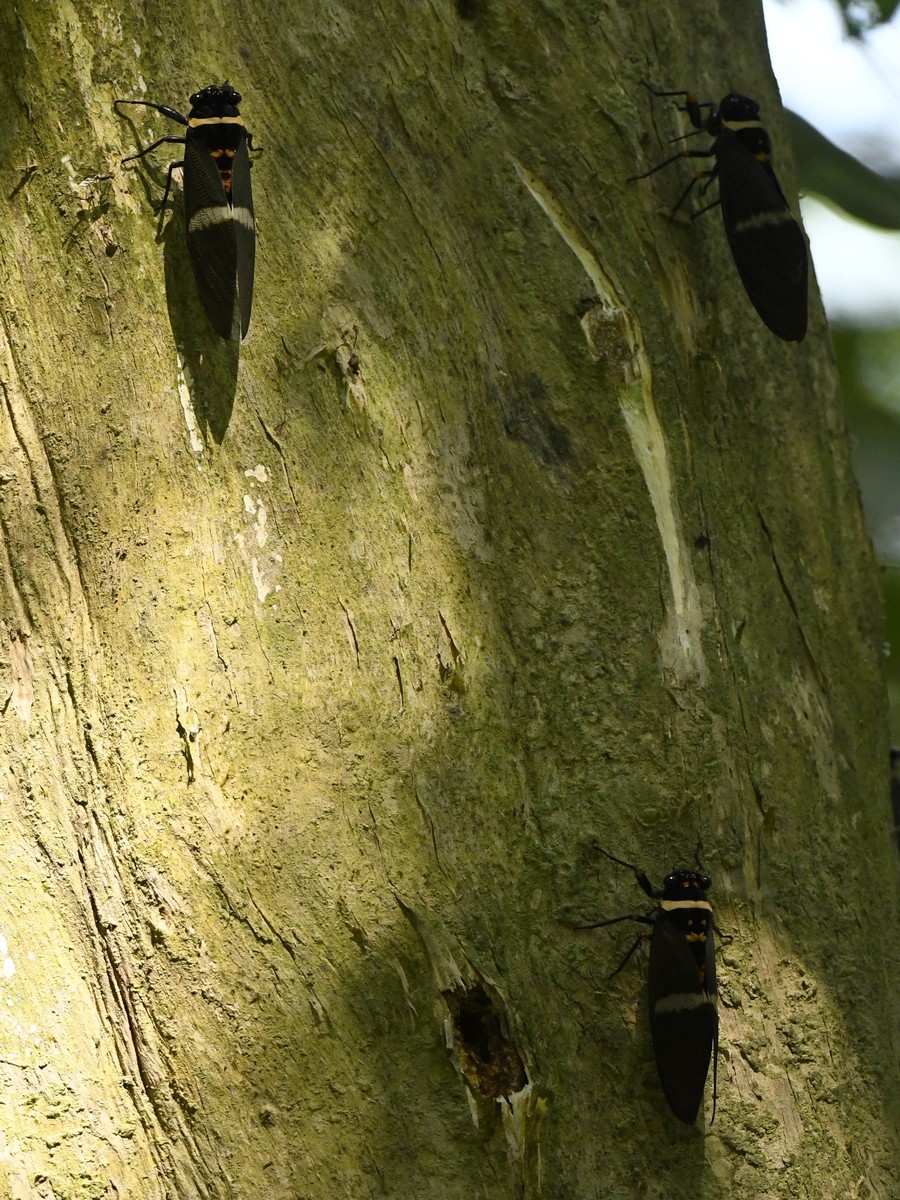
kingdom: Animalia
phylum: Arthropoda
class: Insecta
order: Hemiptera
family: Cicadidae
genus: Tosena
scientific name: Tosena fasciata
